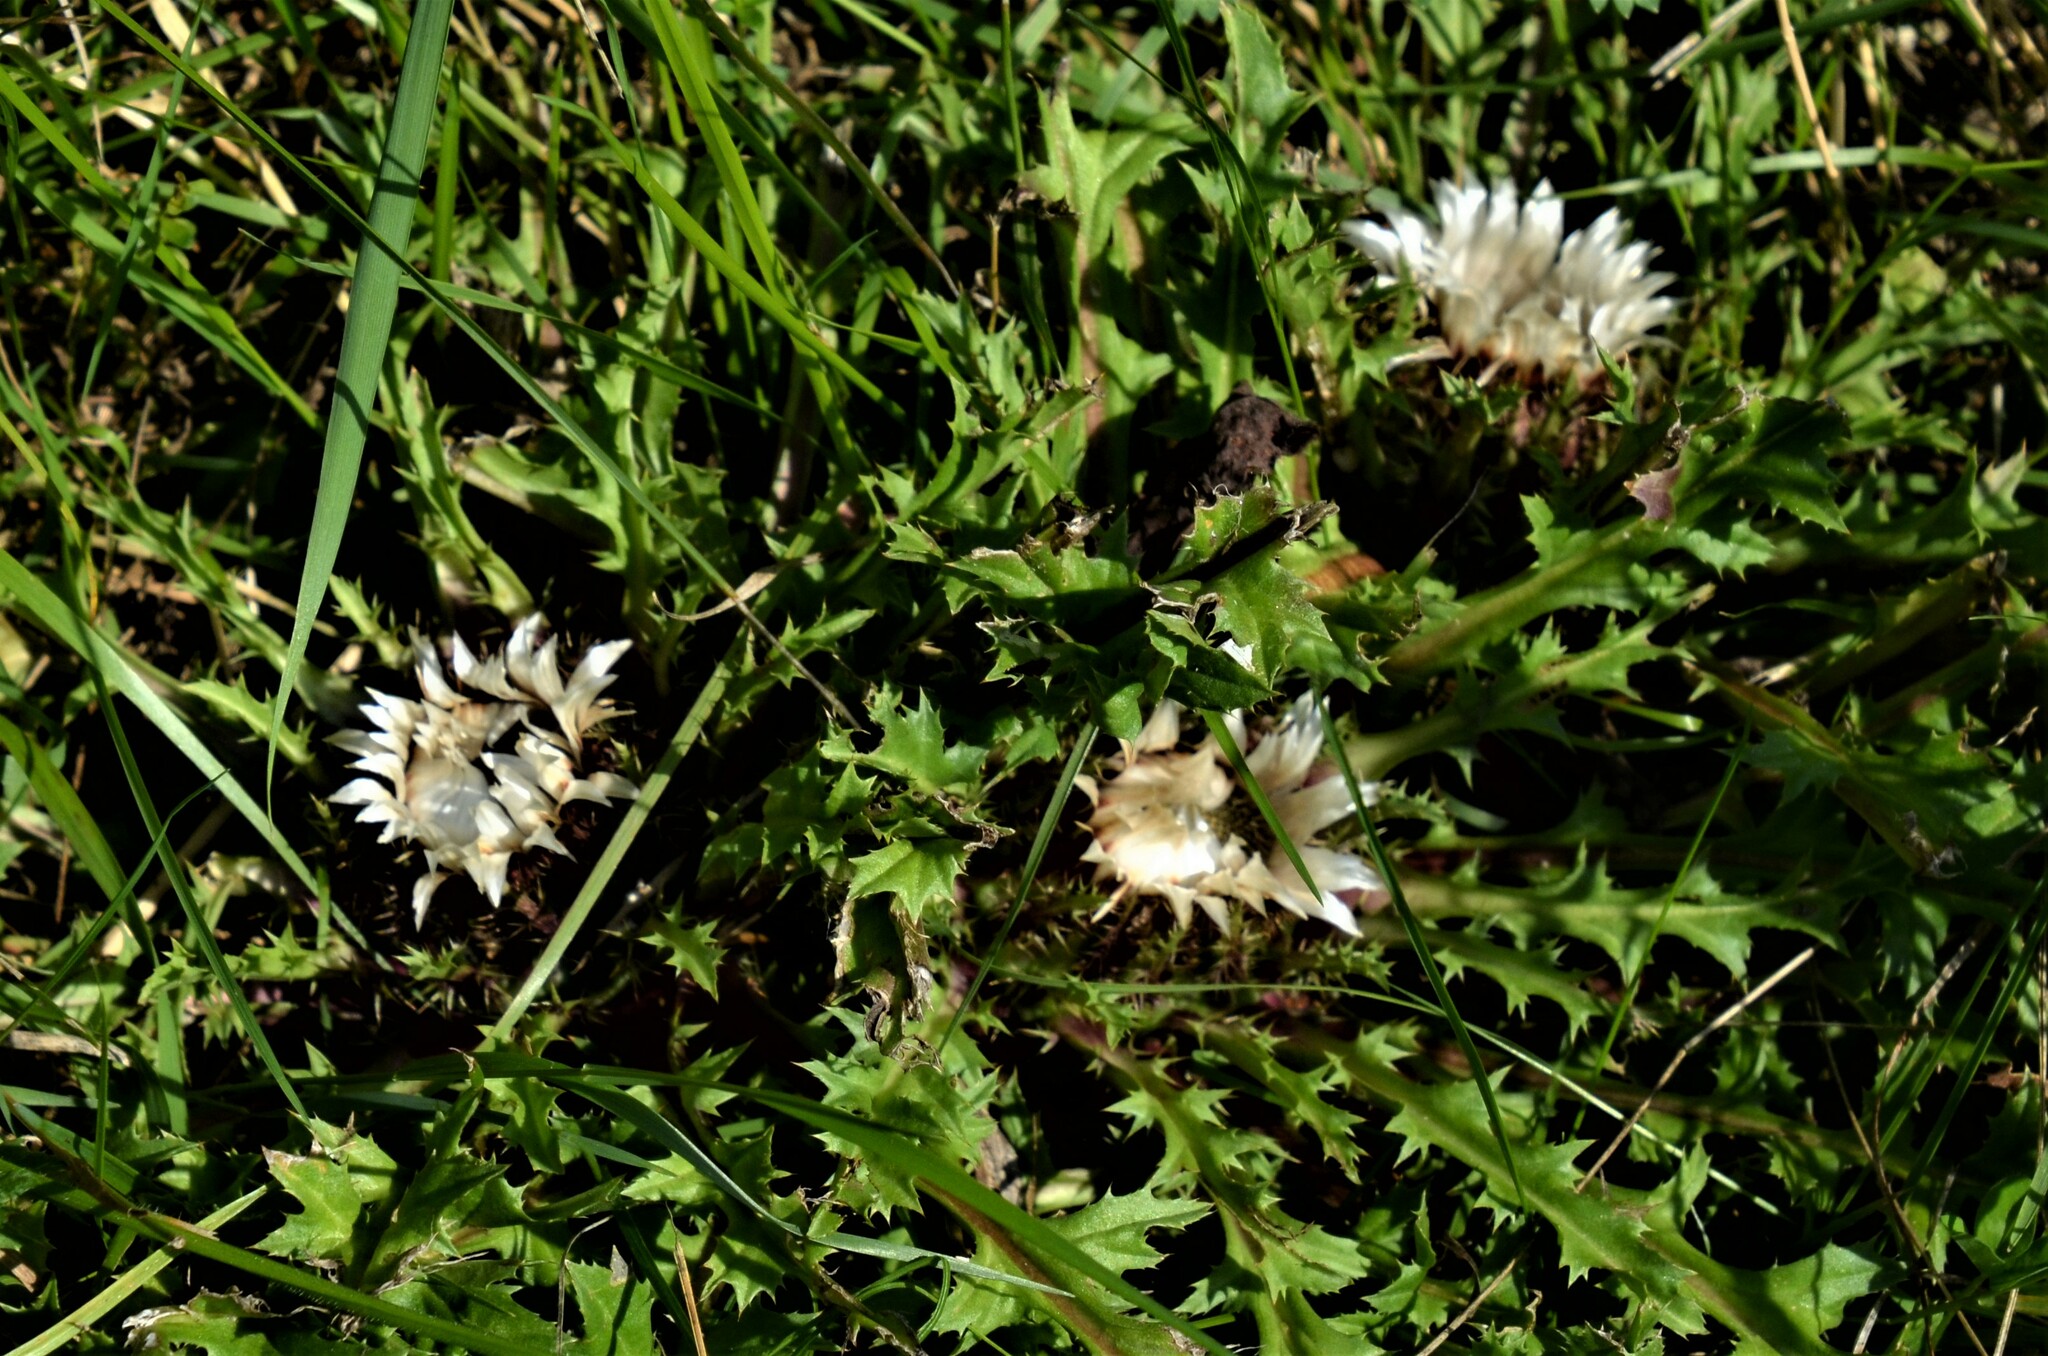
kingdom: Plantae
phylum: Tracheophyta
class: Magnoliopsida
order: Asterales
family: Asteraceae
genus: Carlina
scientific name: Carlina acaulis
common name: Stemless carline thistle
